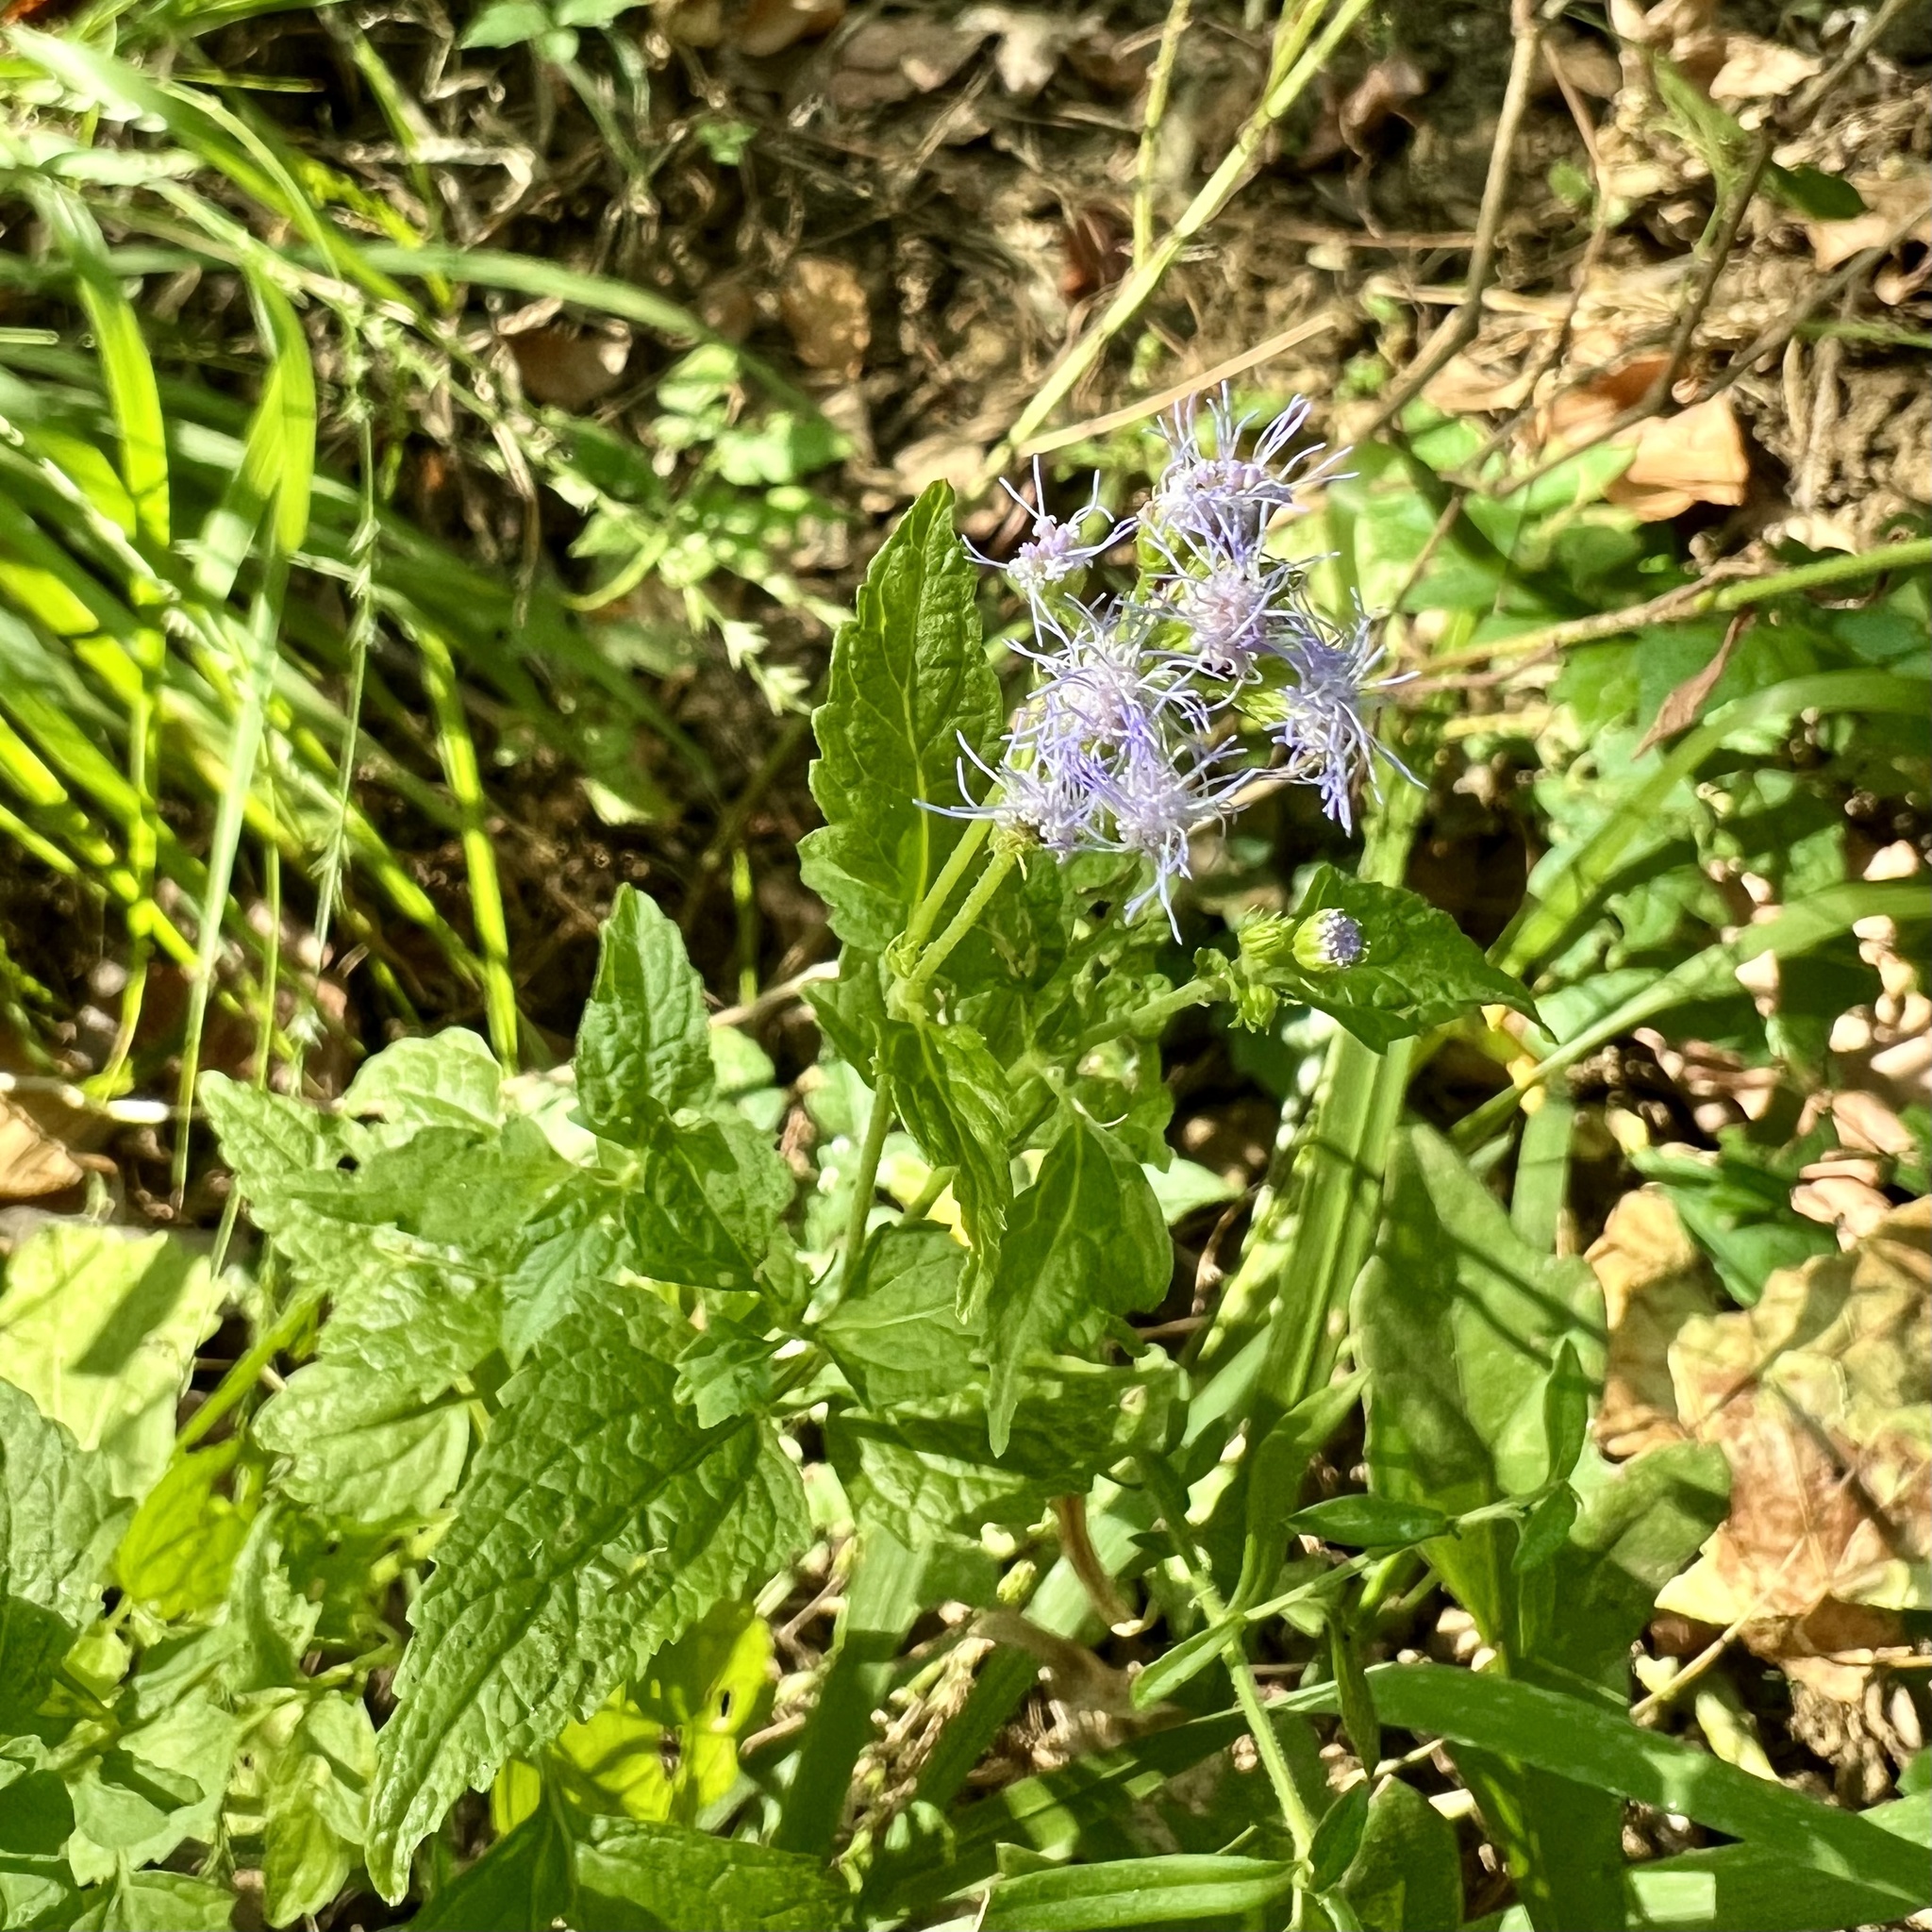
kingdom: Plantae
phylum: Tracheophyta
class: Magnoliopsida
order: Asterales
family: Asteraceae
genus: Conoclinium
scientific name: Conoclinium coelestinum
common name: Blue mistflower
